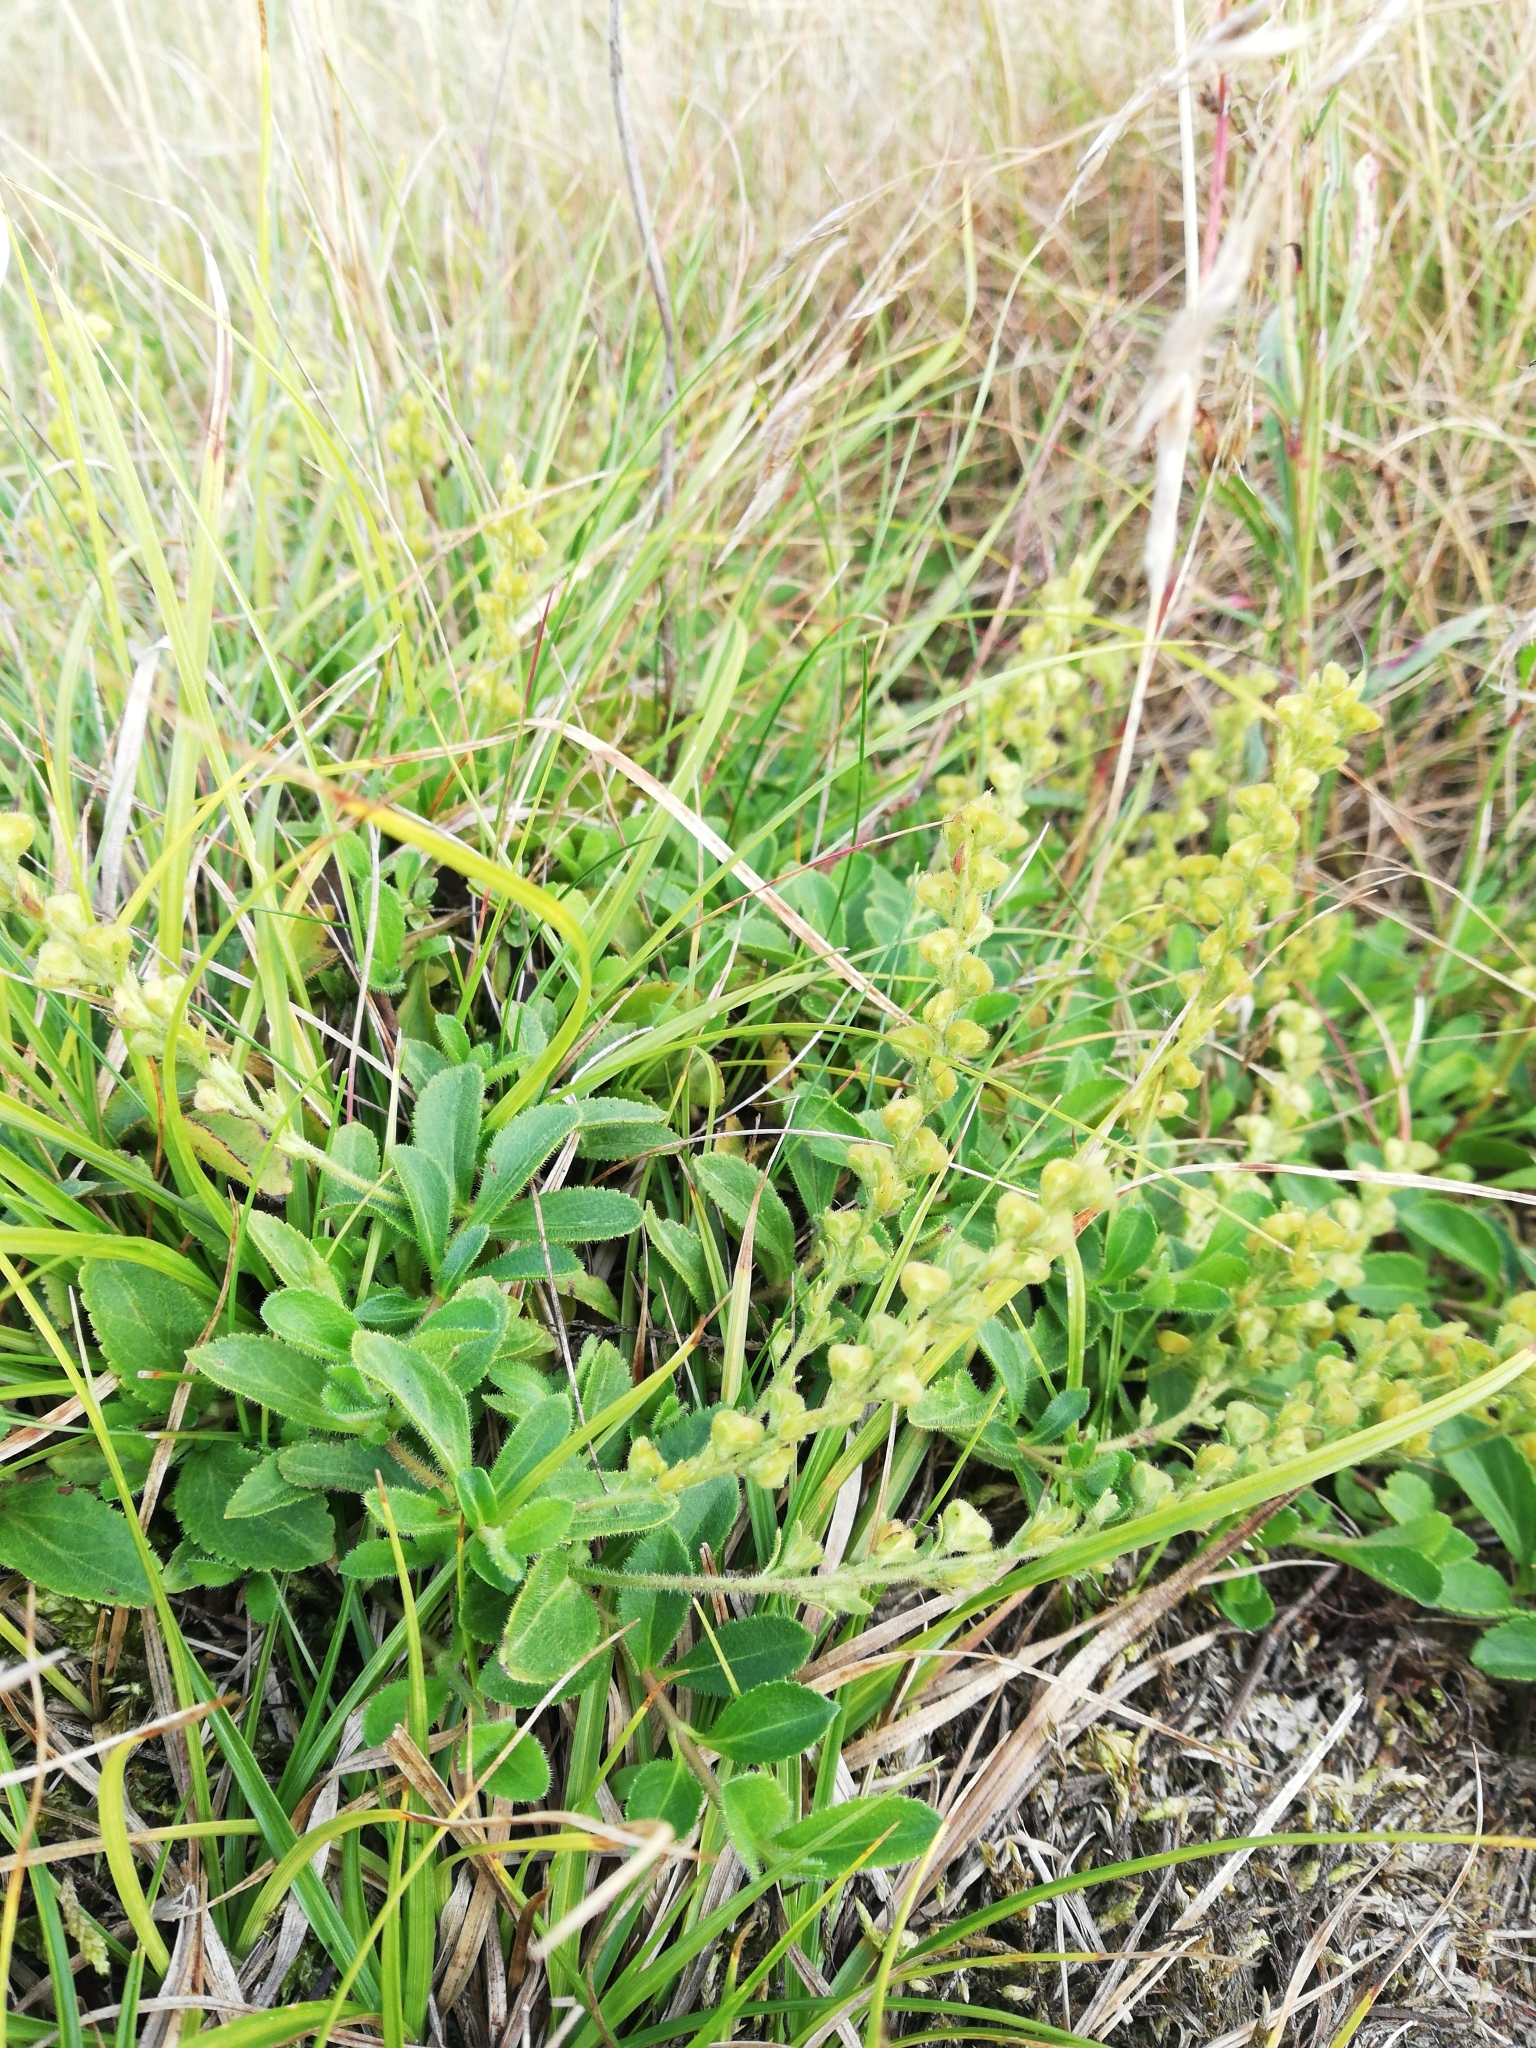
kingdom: Plantae
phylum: Tracheophyta
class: Magnoliopsida
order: Lamiales
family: Plantaginaceae
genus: Veronica
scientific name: Veronica officinalis
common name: Common speedwell
